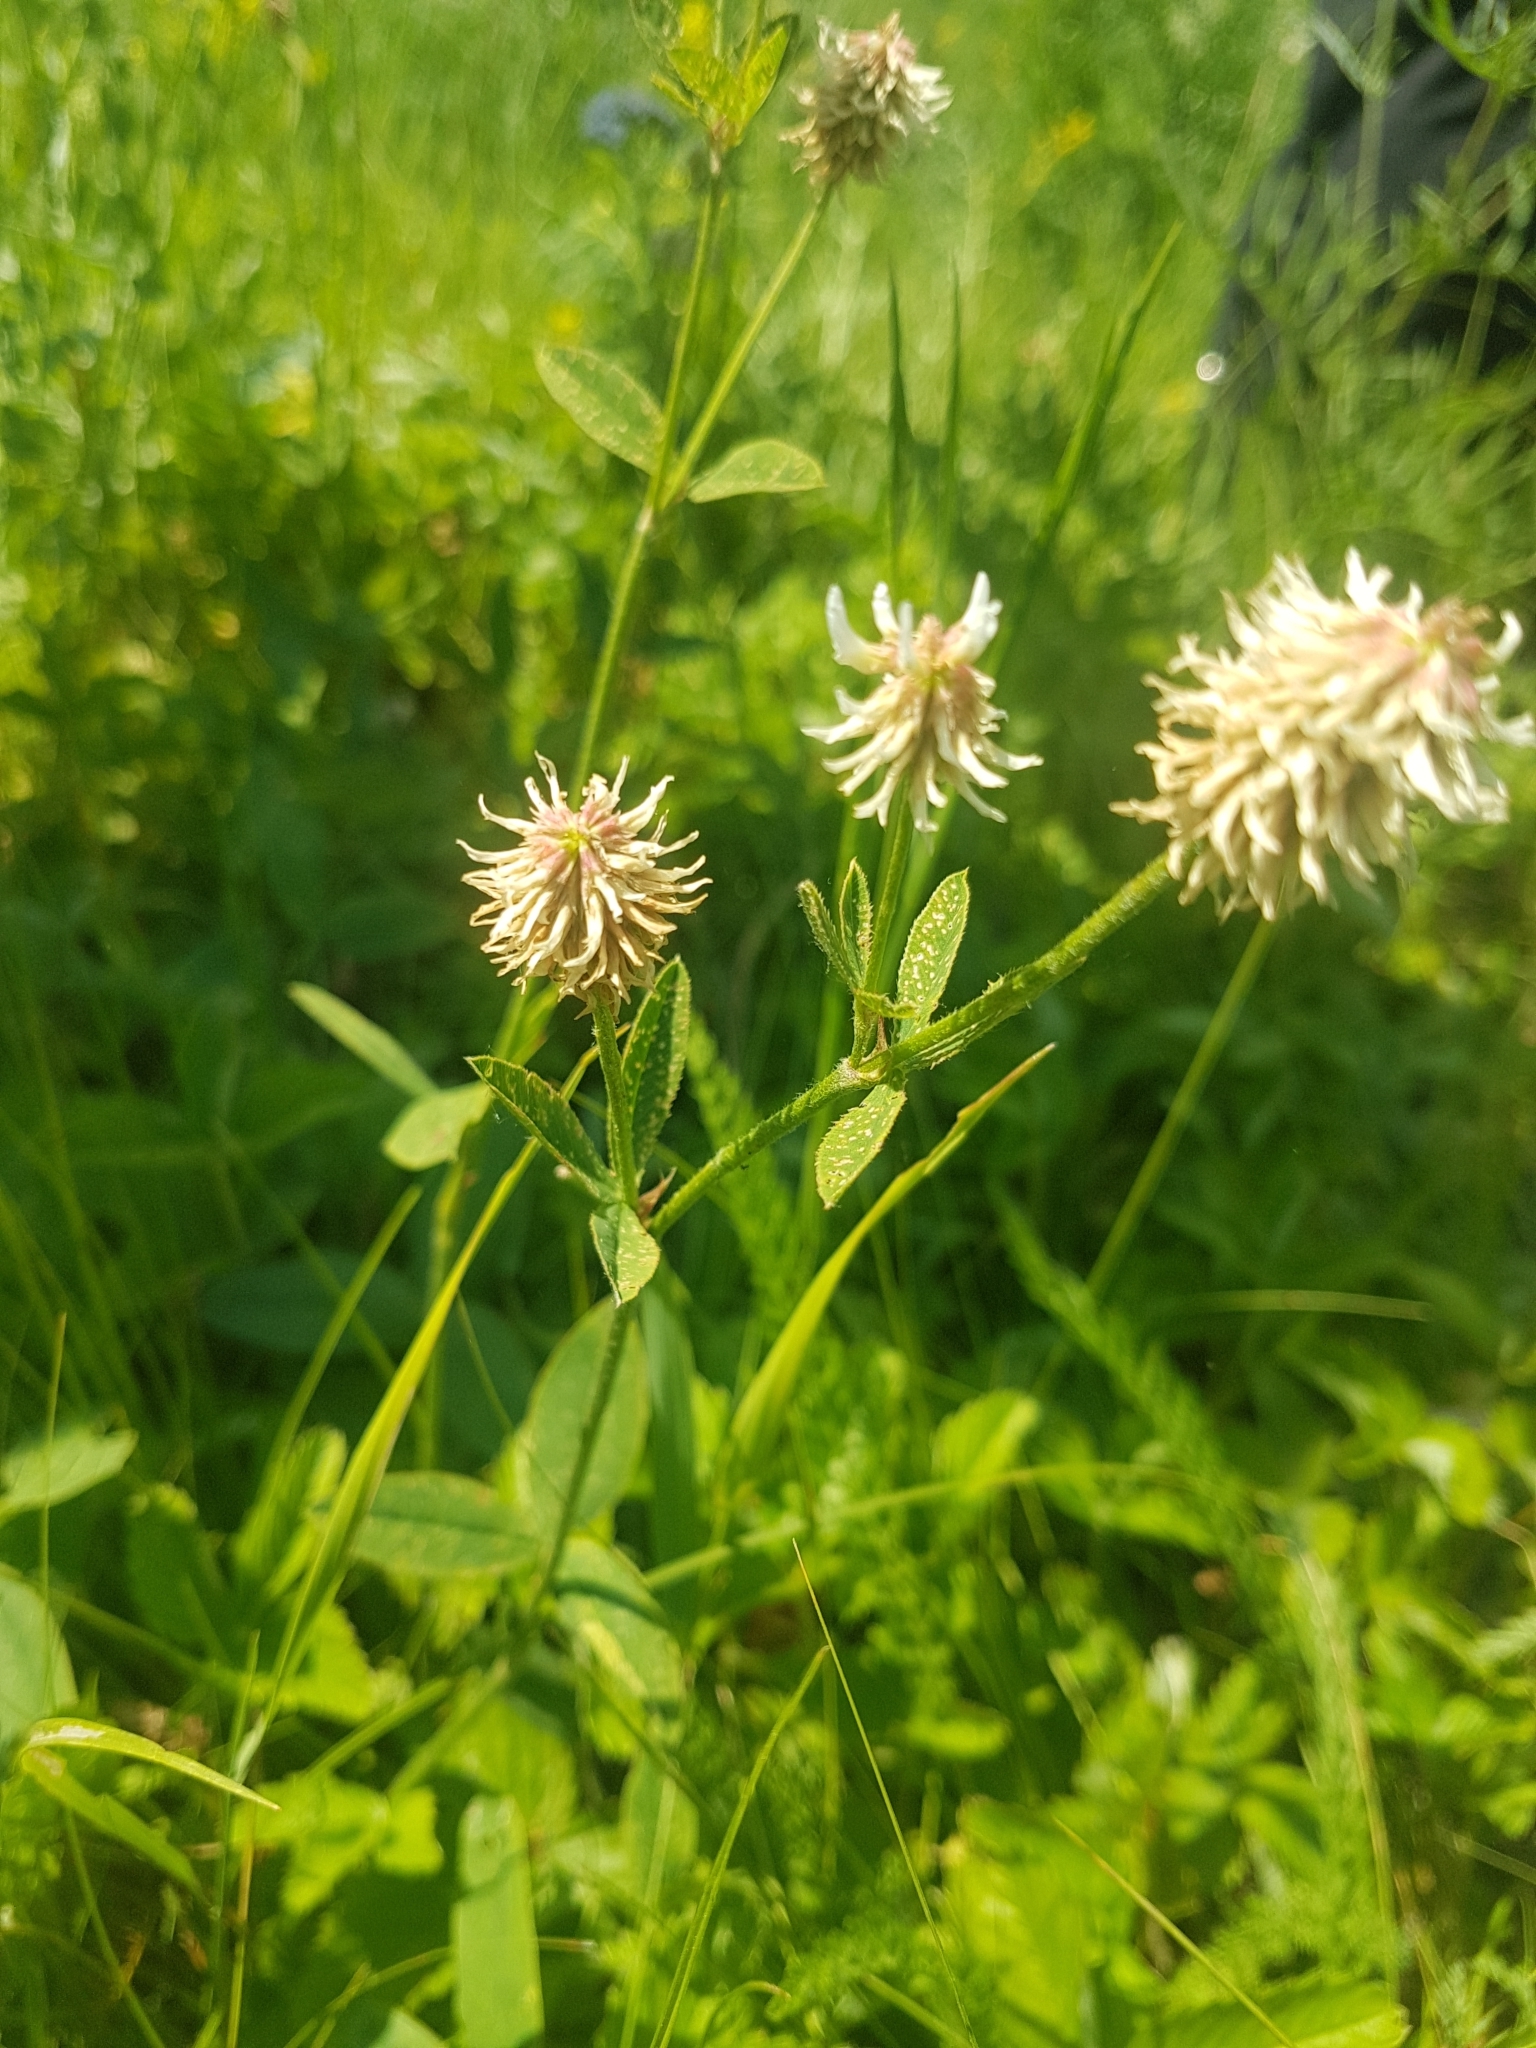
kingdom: Plantae
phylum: Tracheophyta
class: Magnoliopsida
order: Fabales
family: Fabaceae
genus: Trifolium
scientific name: Trifolium montanum
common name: Mountain clover
